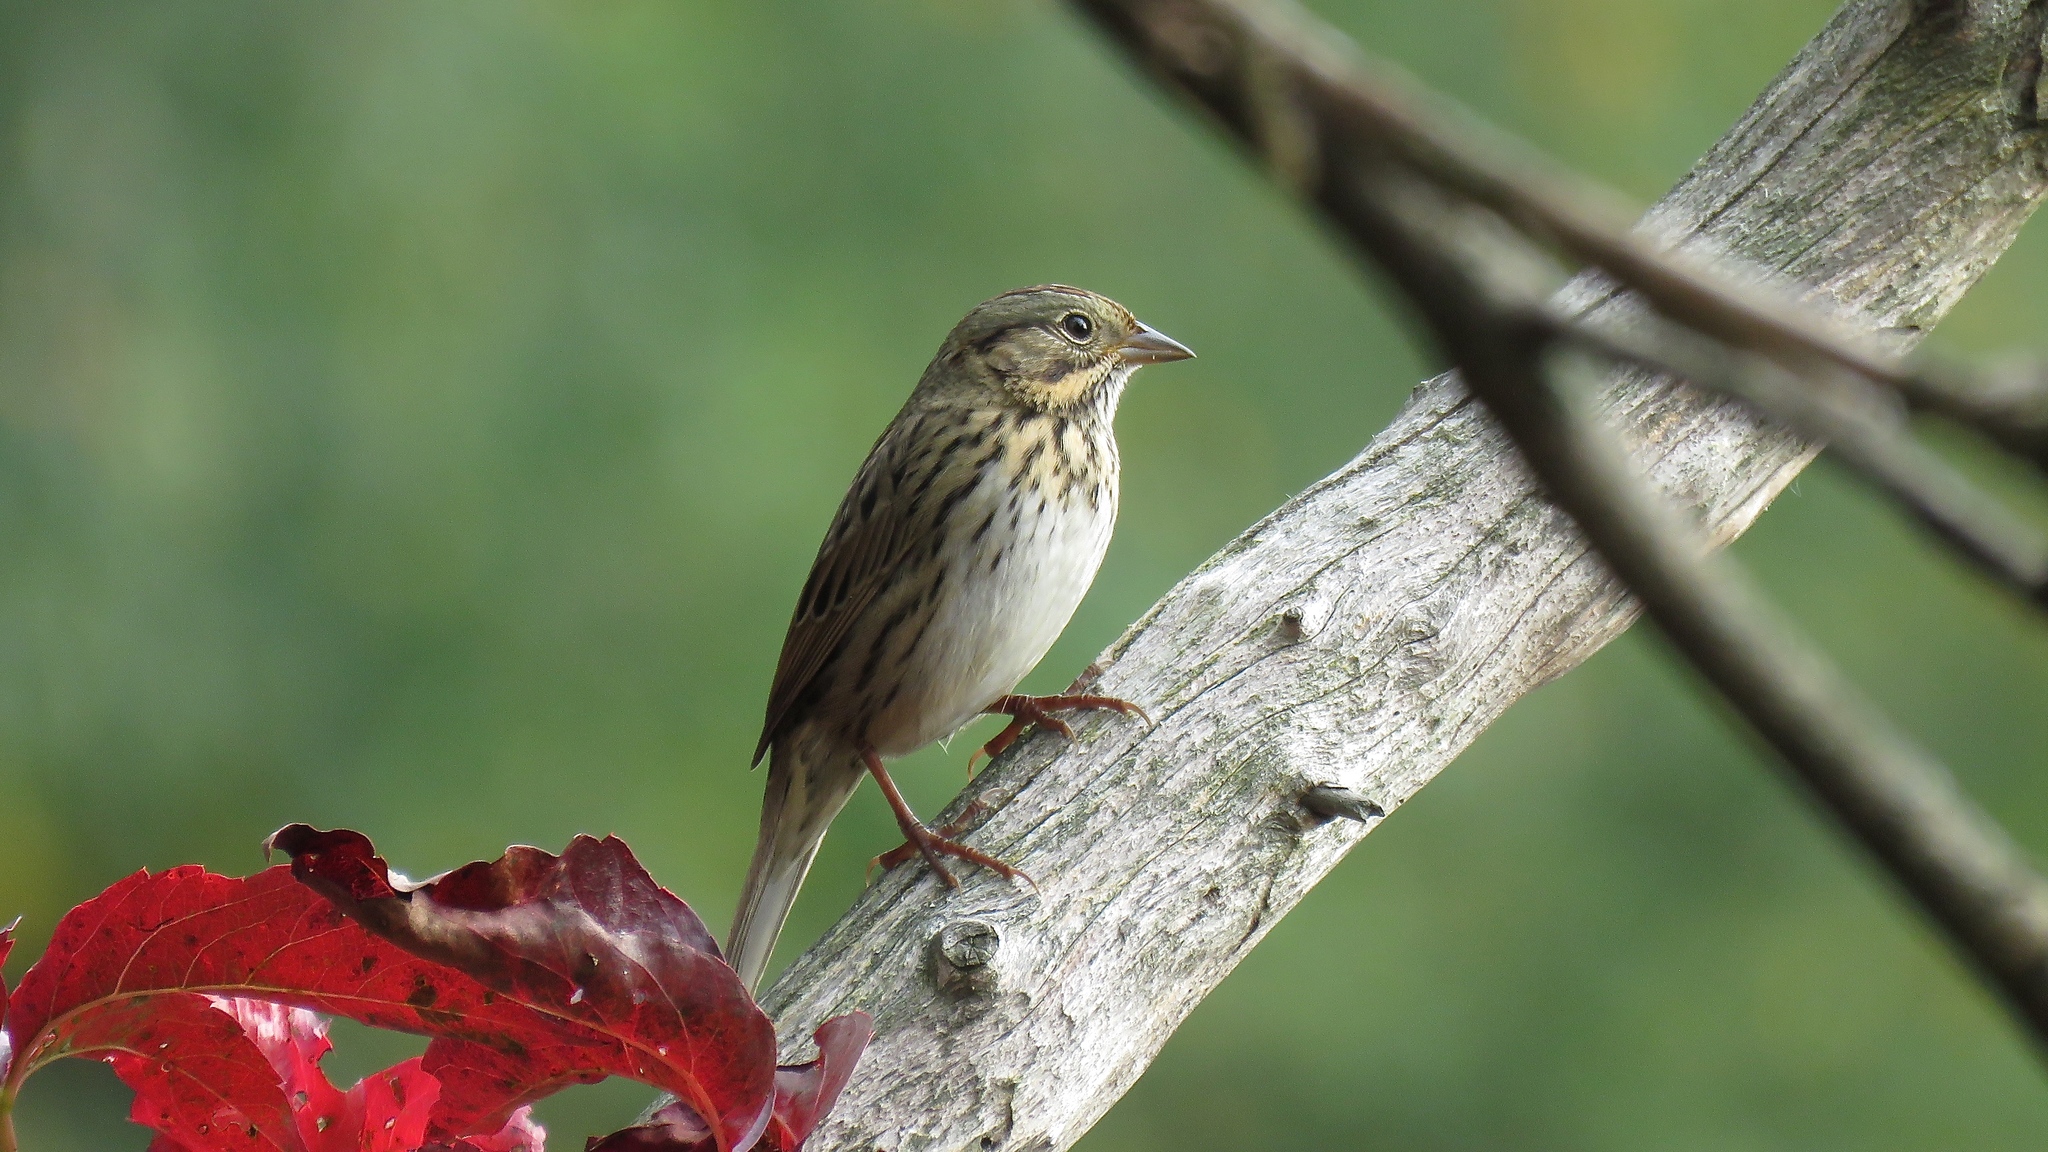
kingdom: Animalia
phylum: Chordata
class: Aves
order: Passeriformes
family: Passerellidae
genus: Melospiza
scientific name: Melospiza lincolnii
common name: Lincoln's sparrow
